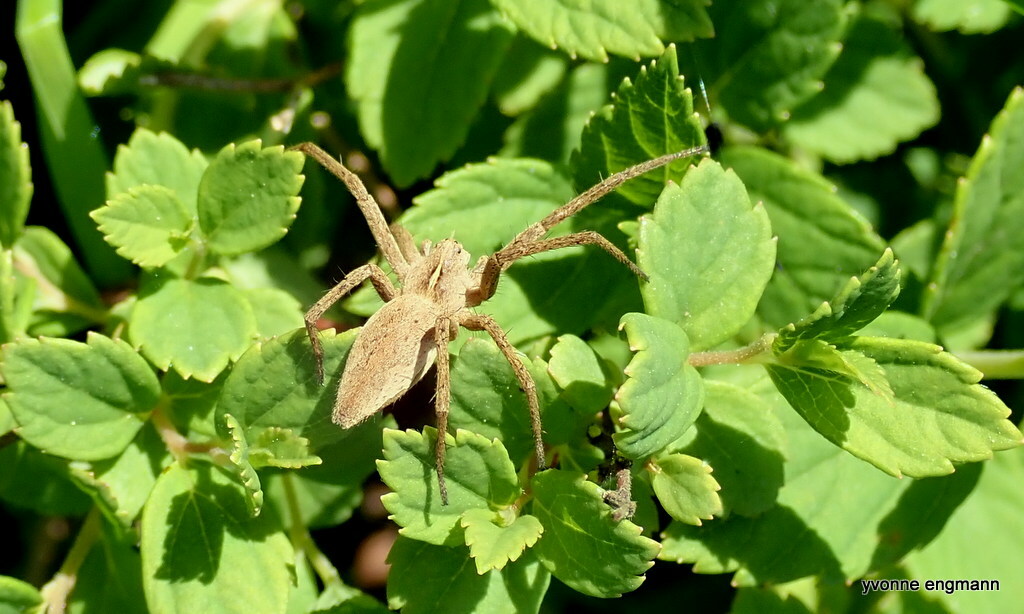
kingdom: Animalia
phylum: Arthropoda
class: Arachnida
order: Araneae
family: Pisauridae
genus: Pisaura
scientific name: Pisaura mirabilis
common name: Tent spider
